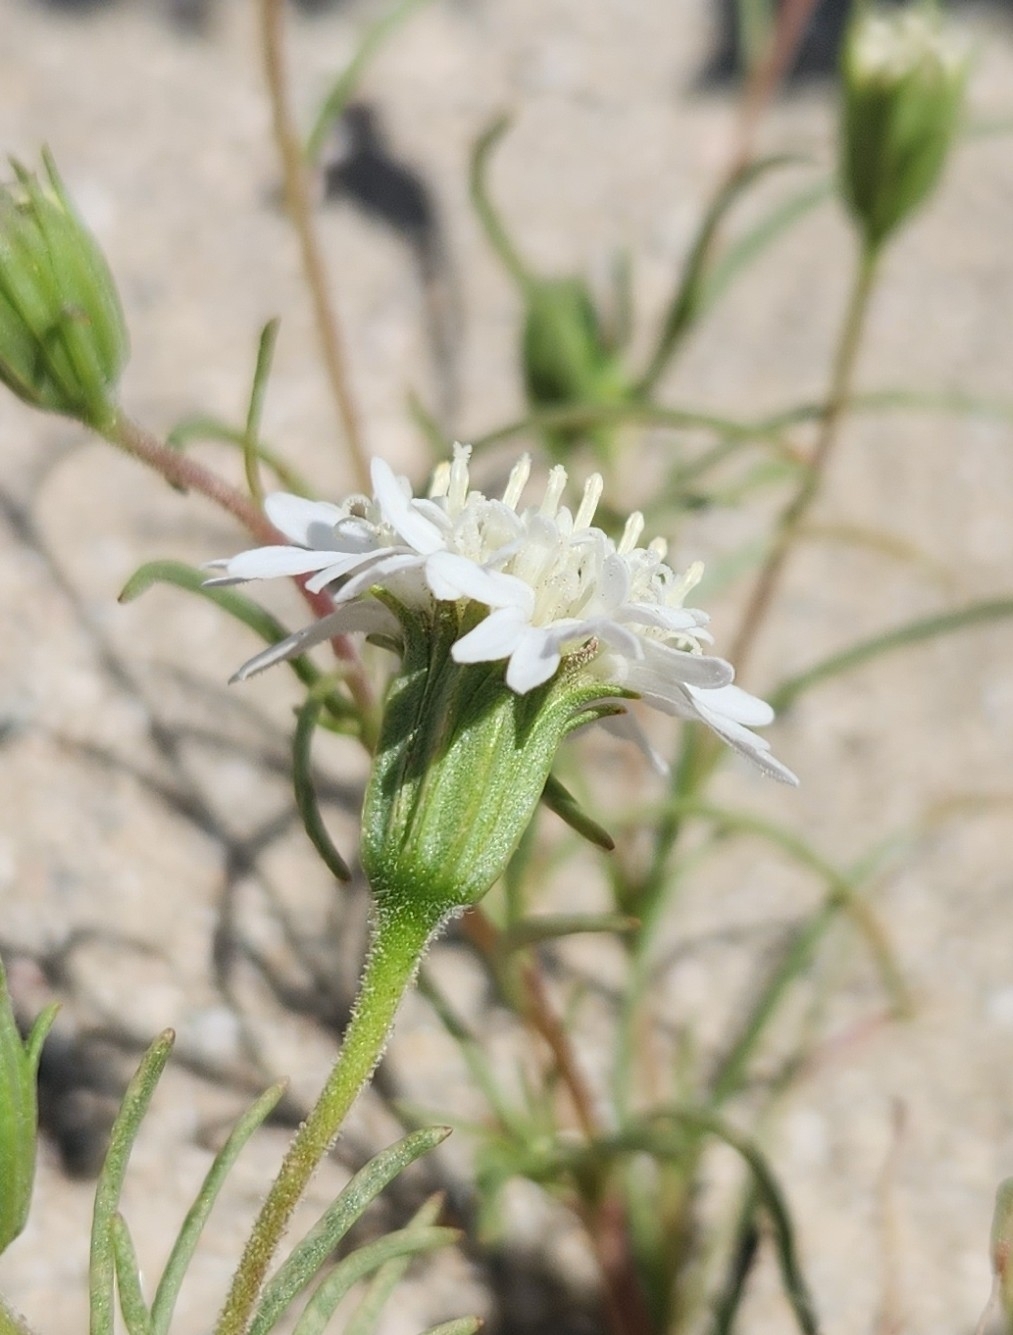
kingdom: Plantae
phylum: Tracheophyta
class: Magnoliopsida
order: Asterales
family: Asteraceae
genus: Chaenactis
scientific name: Chaenactis fremontii
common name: Fremont pincushion
